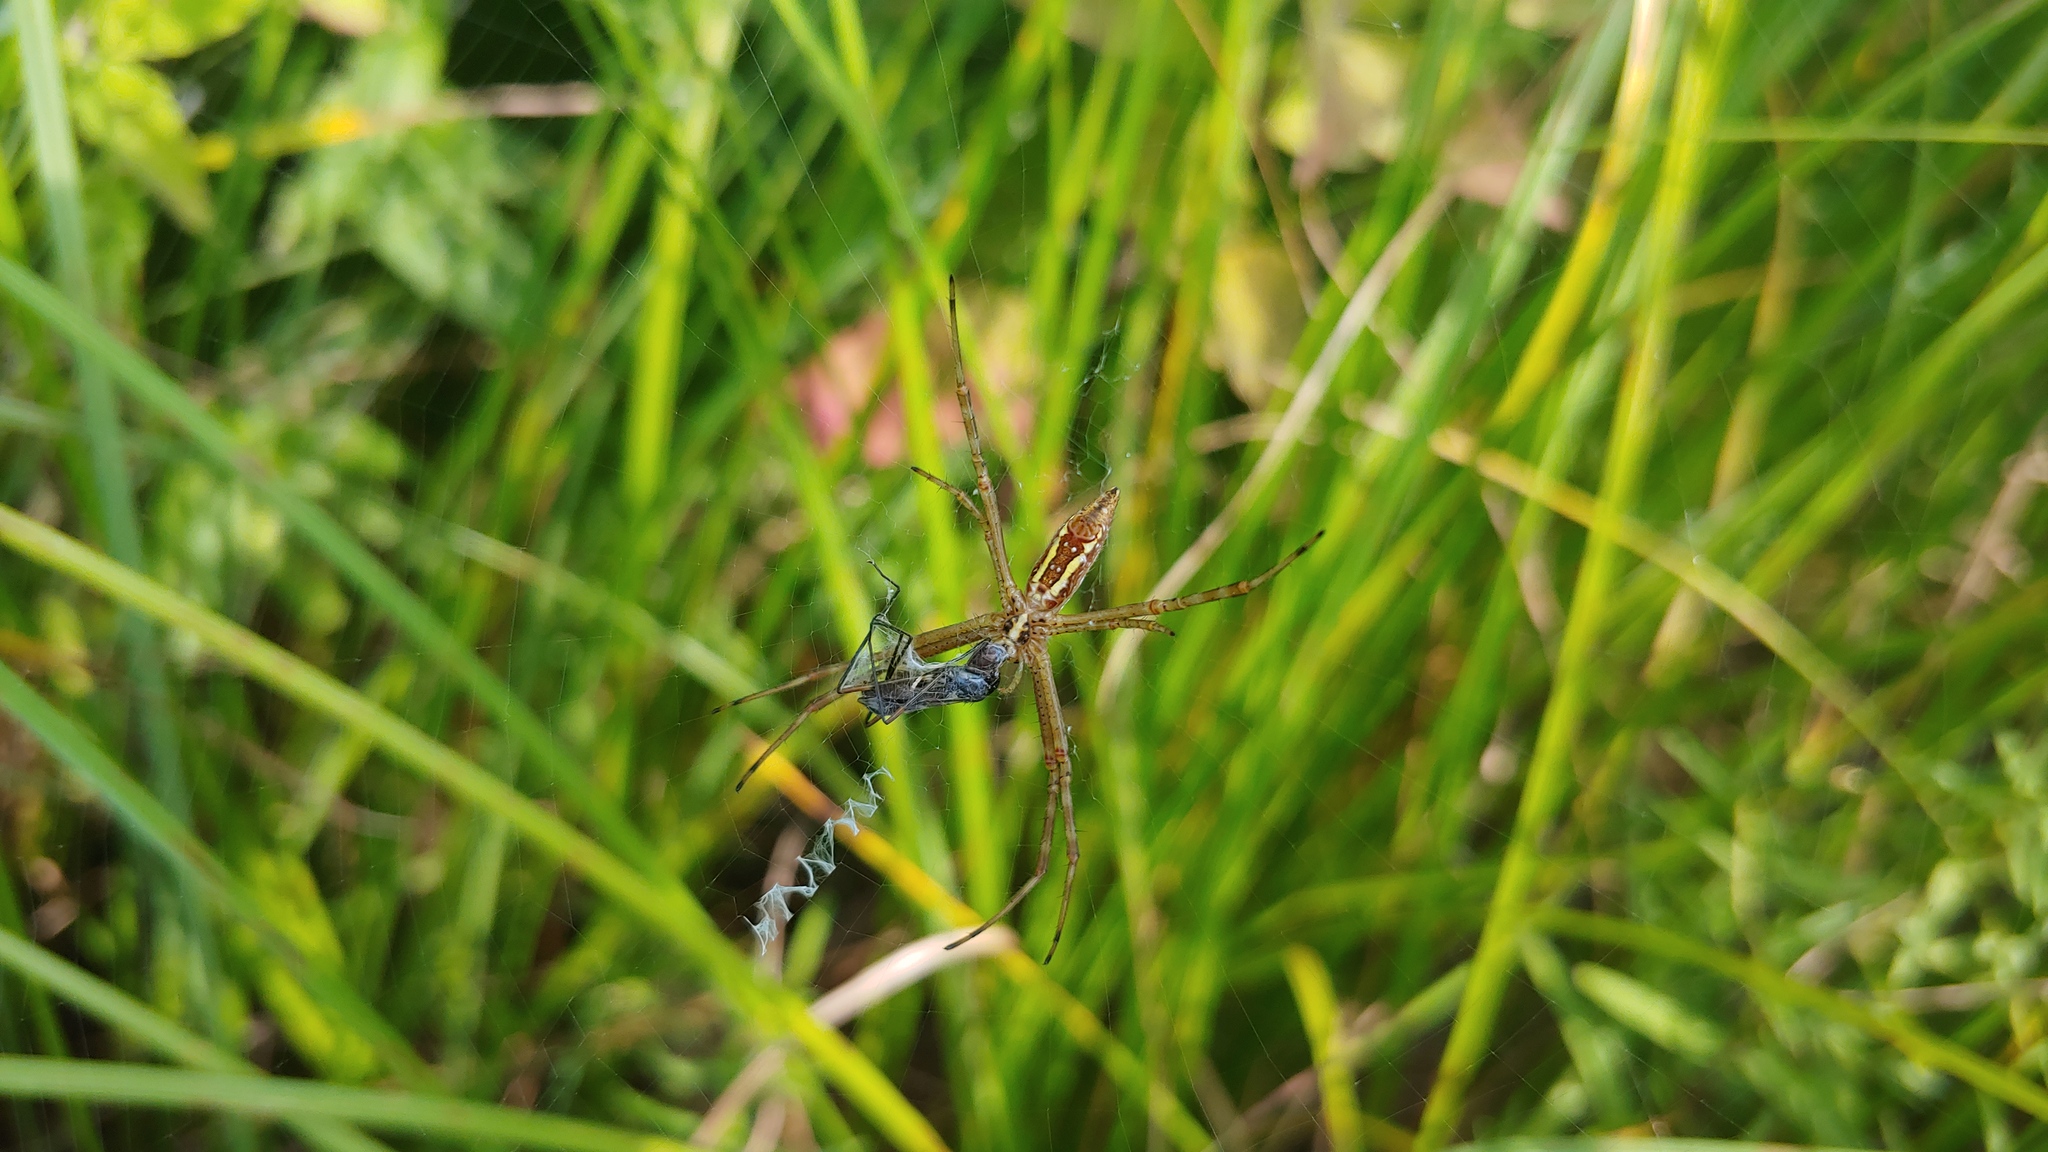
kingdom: Animalia
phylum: Arthropoda
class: Arachnida
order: Araneae
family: Araneidae
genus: Argiope
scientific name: Argiope trifasciata
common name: Banded garden spider
